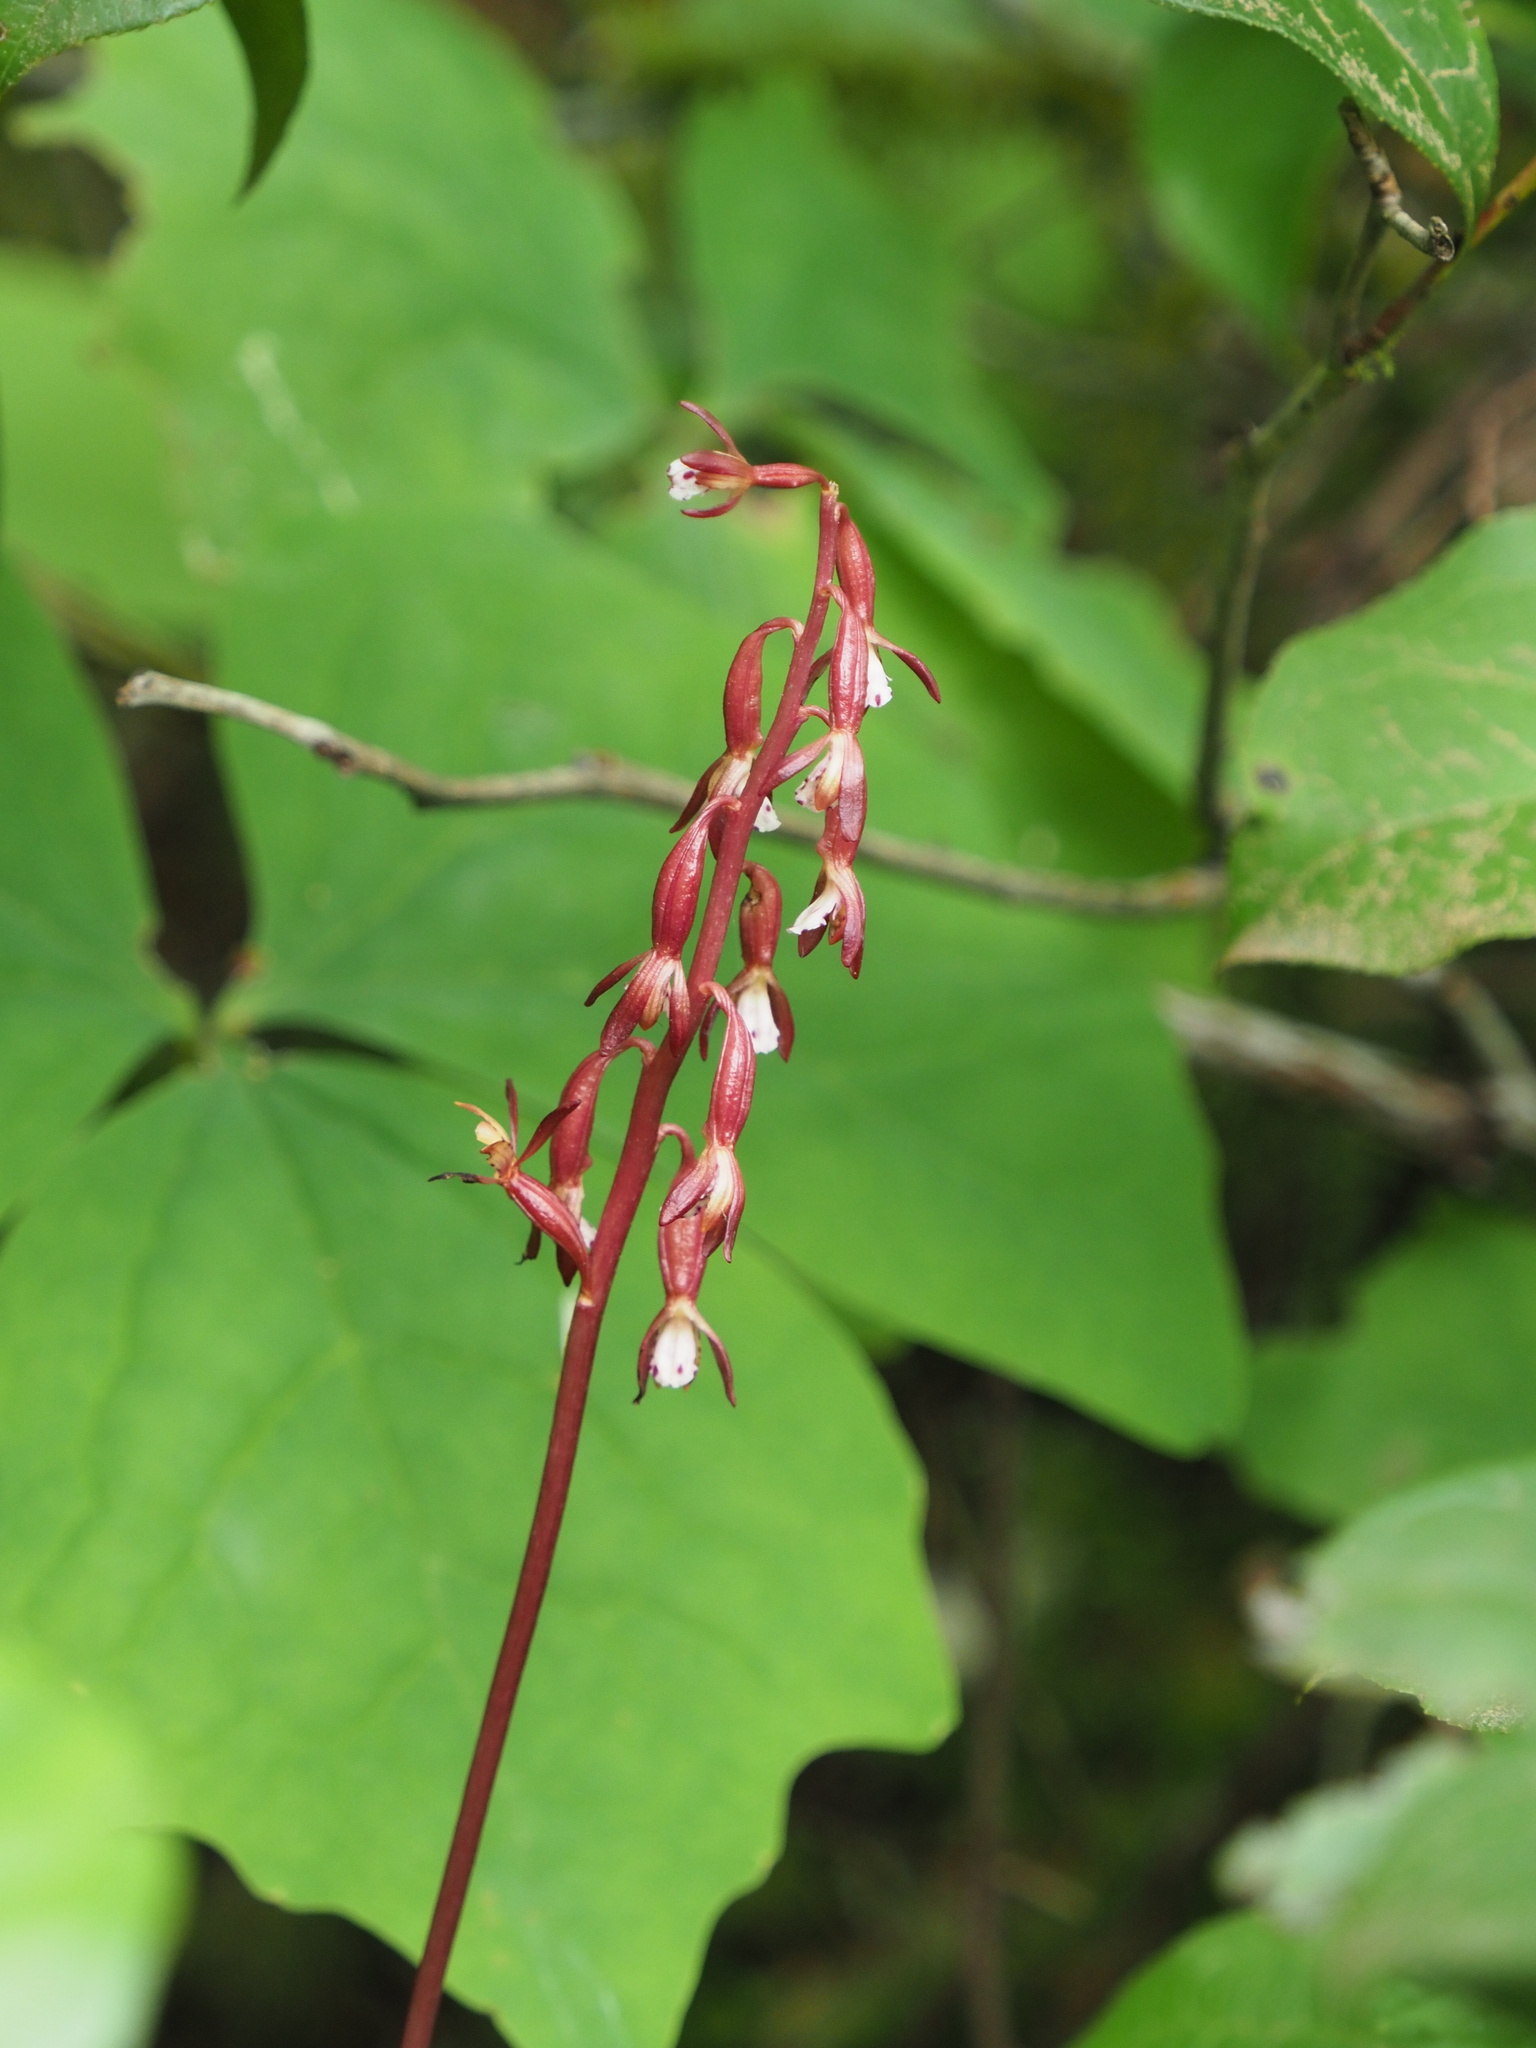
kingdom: Plantae
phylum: Tracheophyta
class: Liliopsida
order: Asparagales
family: Orchidaceae
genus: Corallorhiza
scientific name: Corallorhiza maculata
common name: Spotted coralroot
